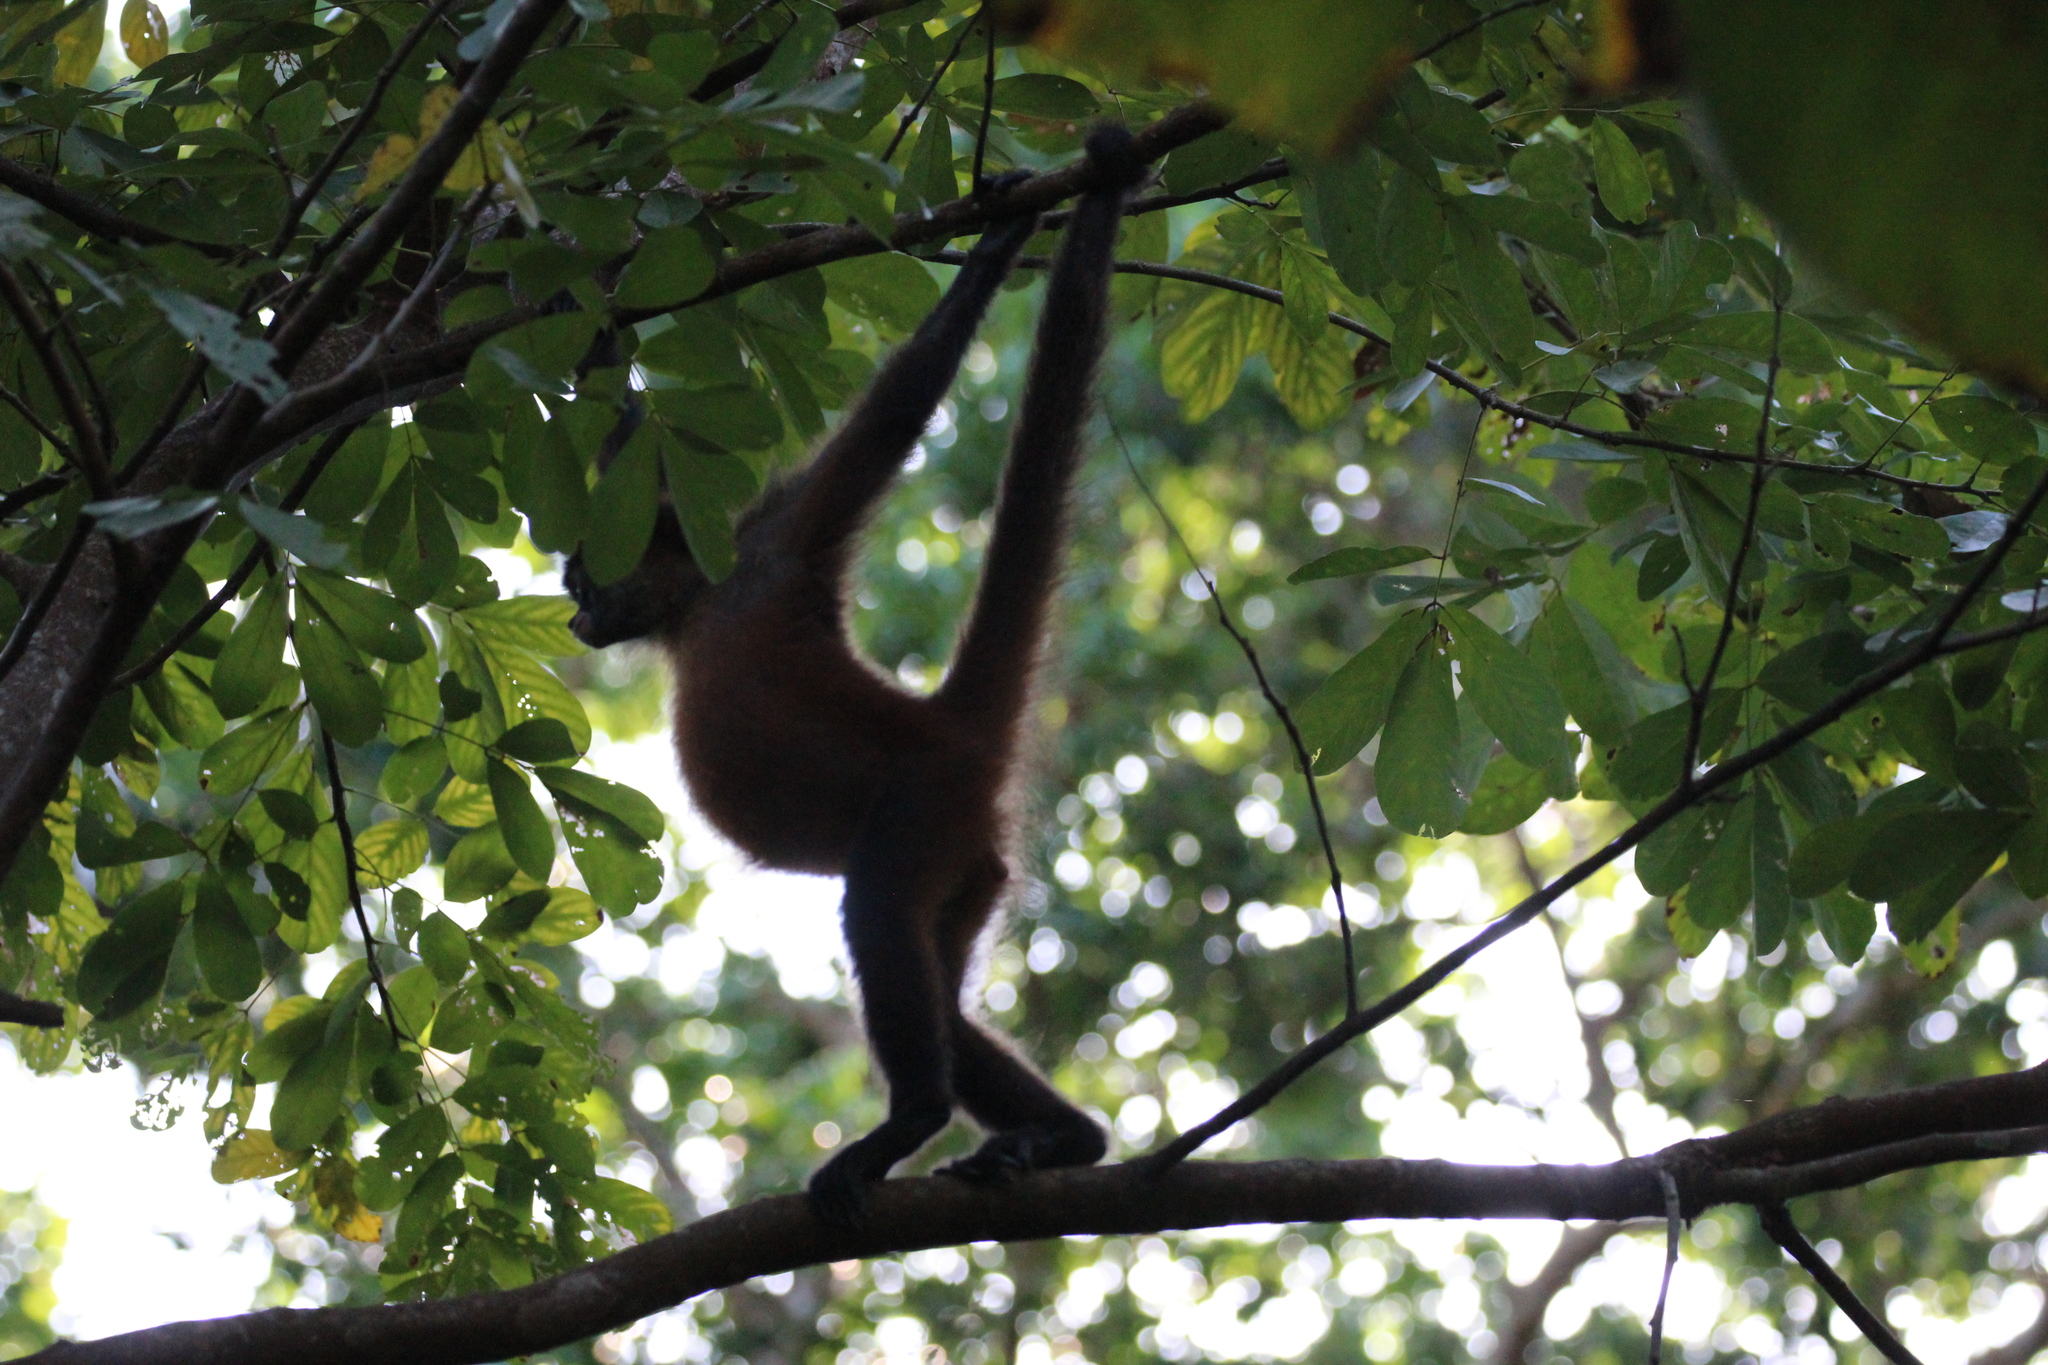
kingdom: Animalia
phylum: Chordata
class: Mammalia
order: Primates
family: Atelidae
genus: Ateles
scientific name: Ateles geoffroyi
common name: Black-handed spider monkey
